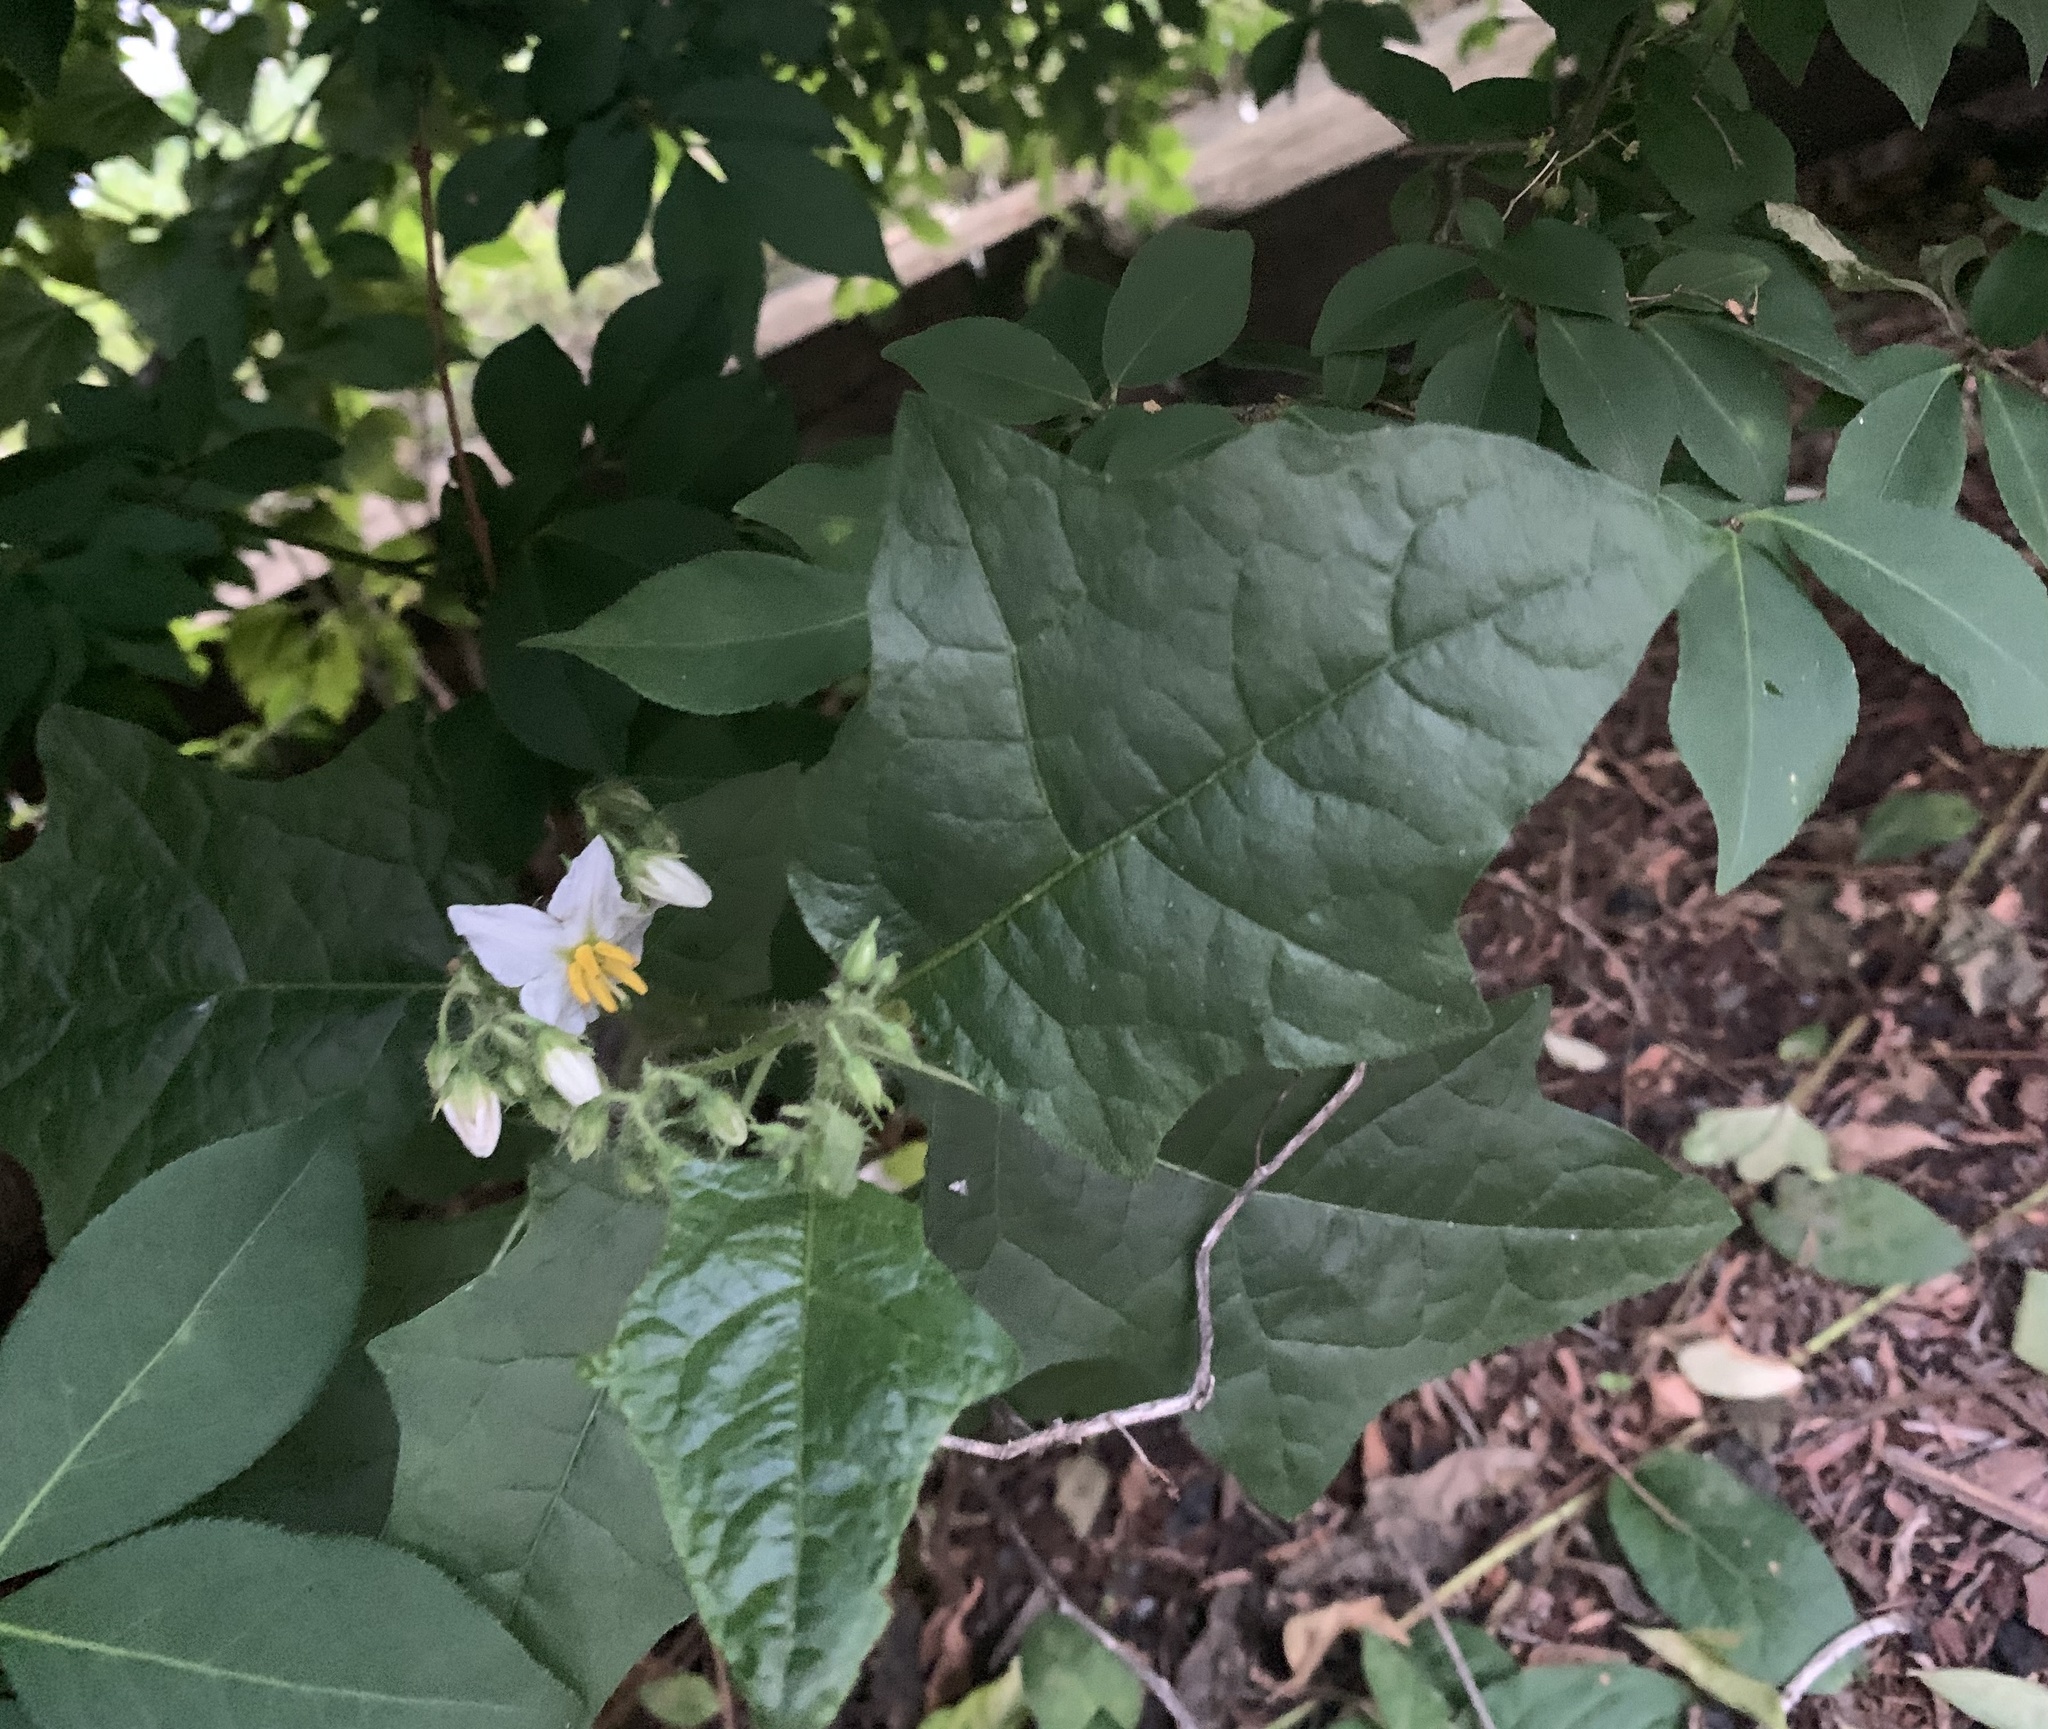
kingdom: Plantae
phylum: Tracheophyta
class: Magnoliopsida
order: Solanales
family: Solanaceae
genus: Solanum
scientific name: Solanum carolinense
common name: Horse-nettle
